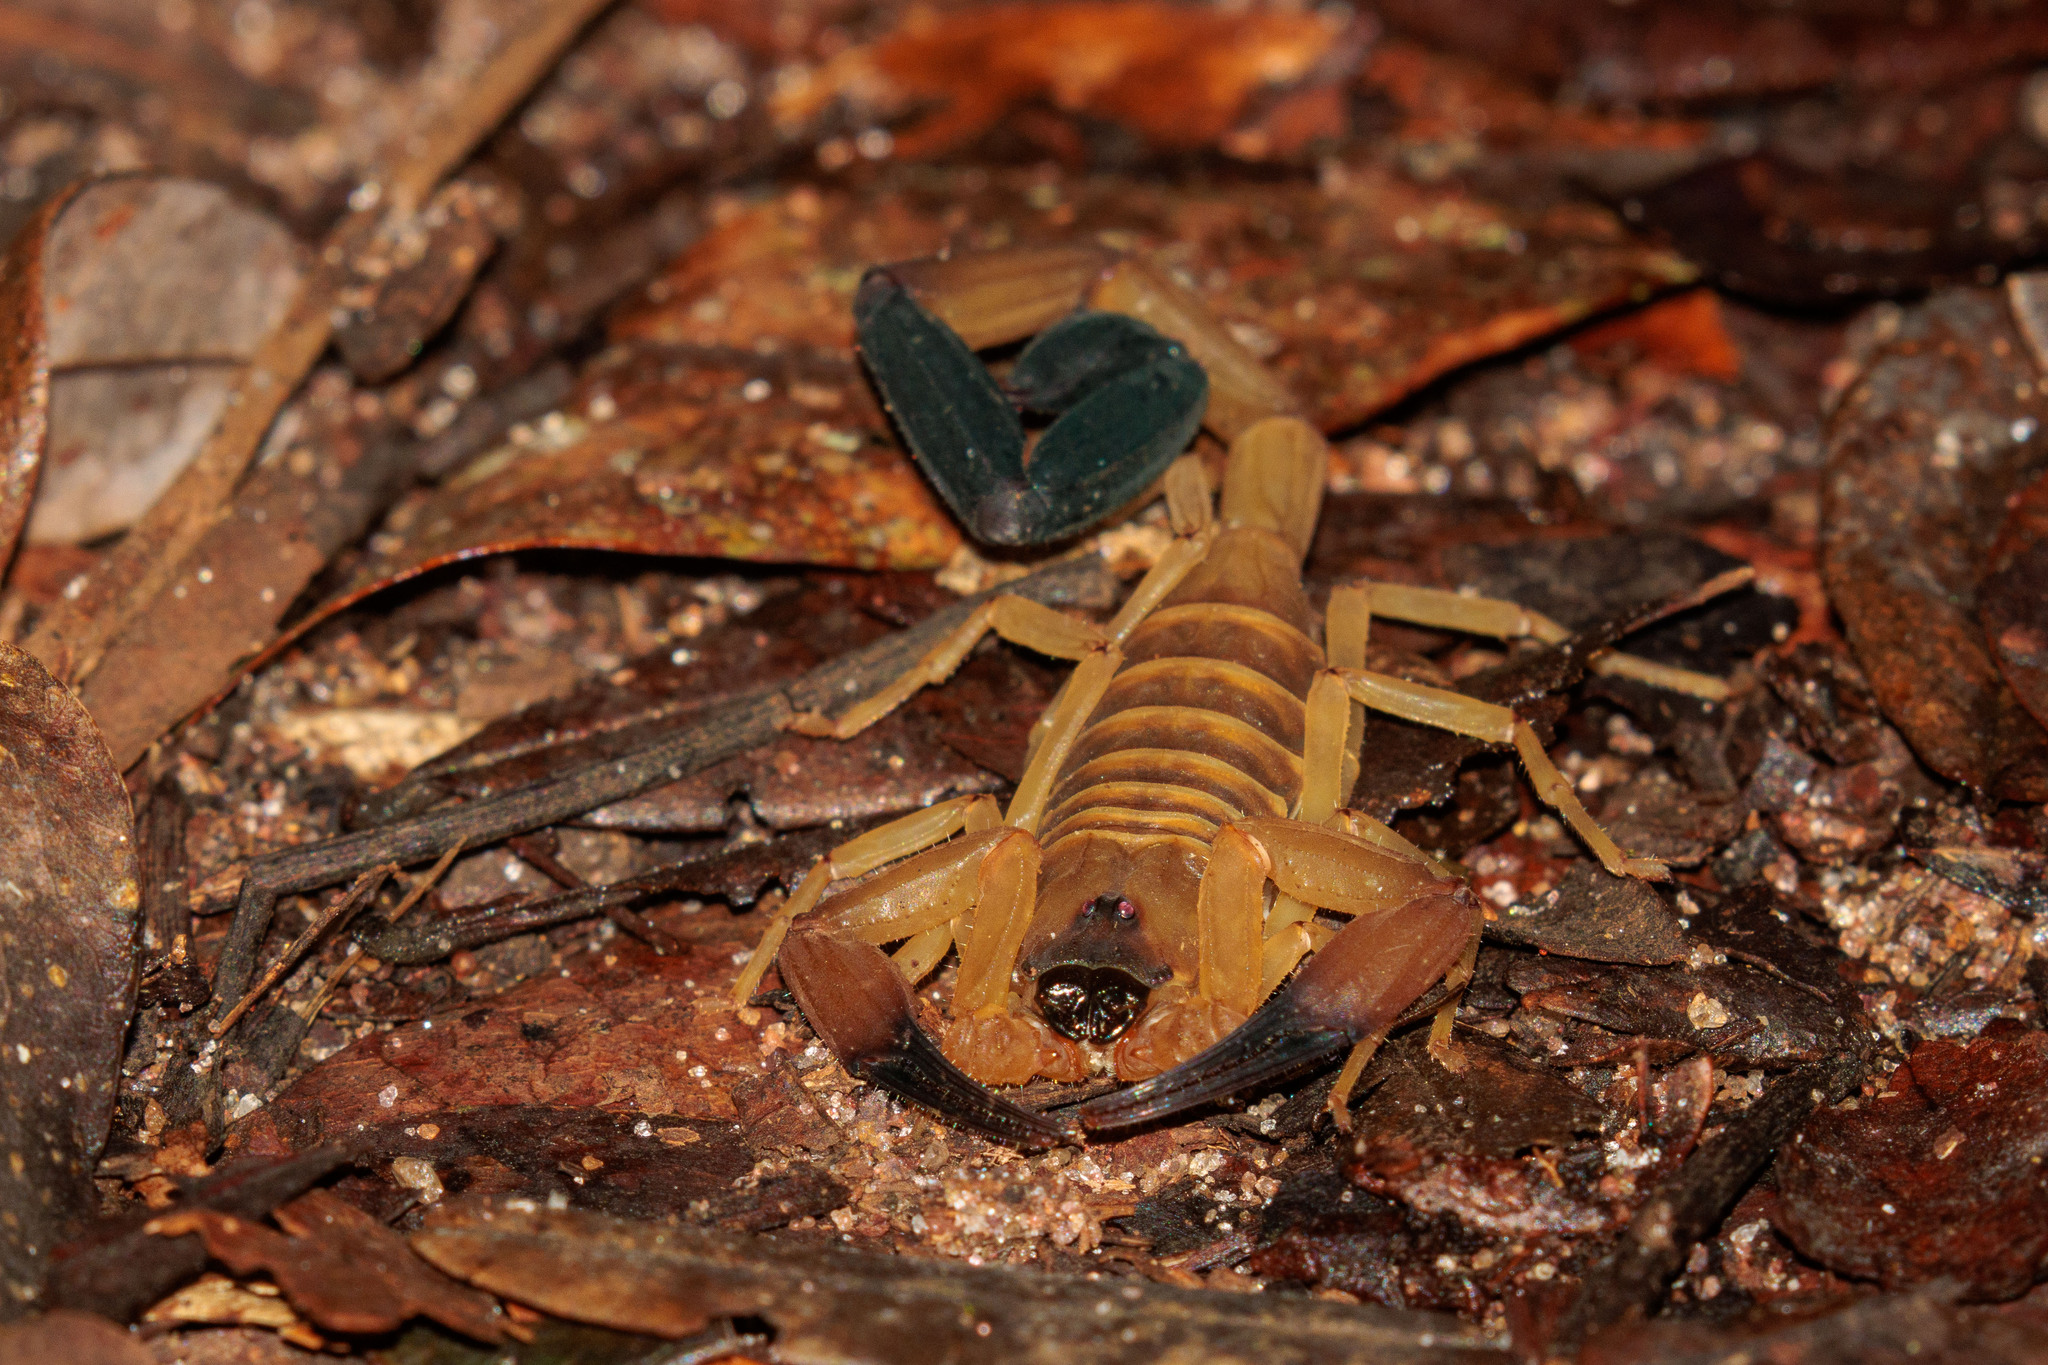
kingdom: Animalia
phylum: Arthropoda
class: Arachnida
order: Scorpiones
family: Buthidae
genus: Tityus
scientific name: Tityus neglectus
